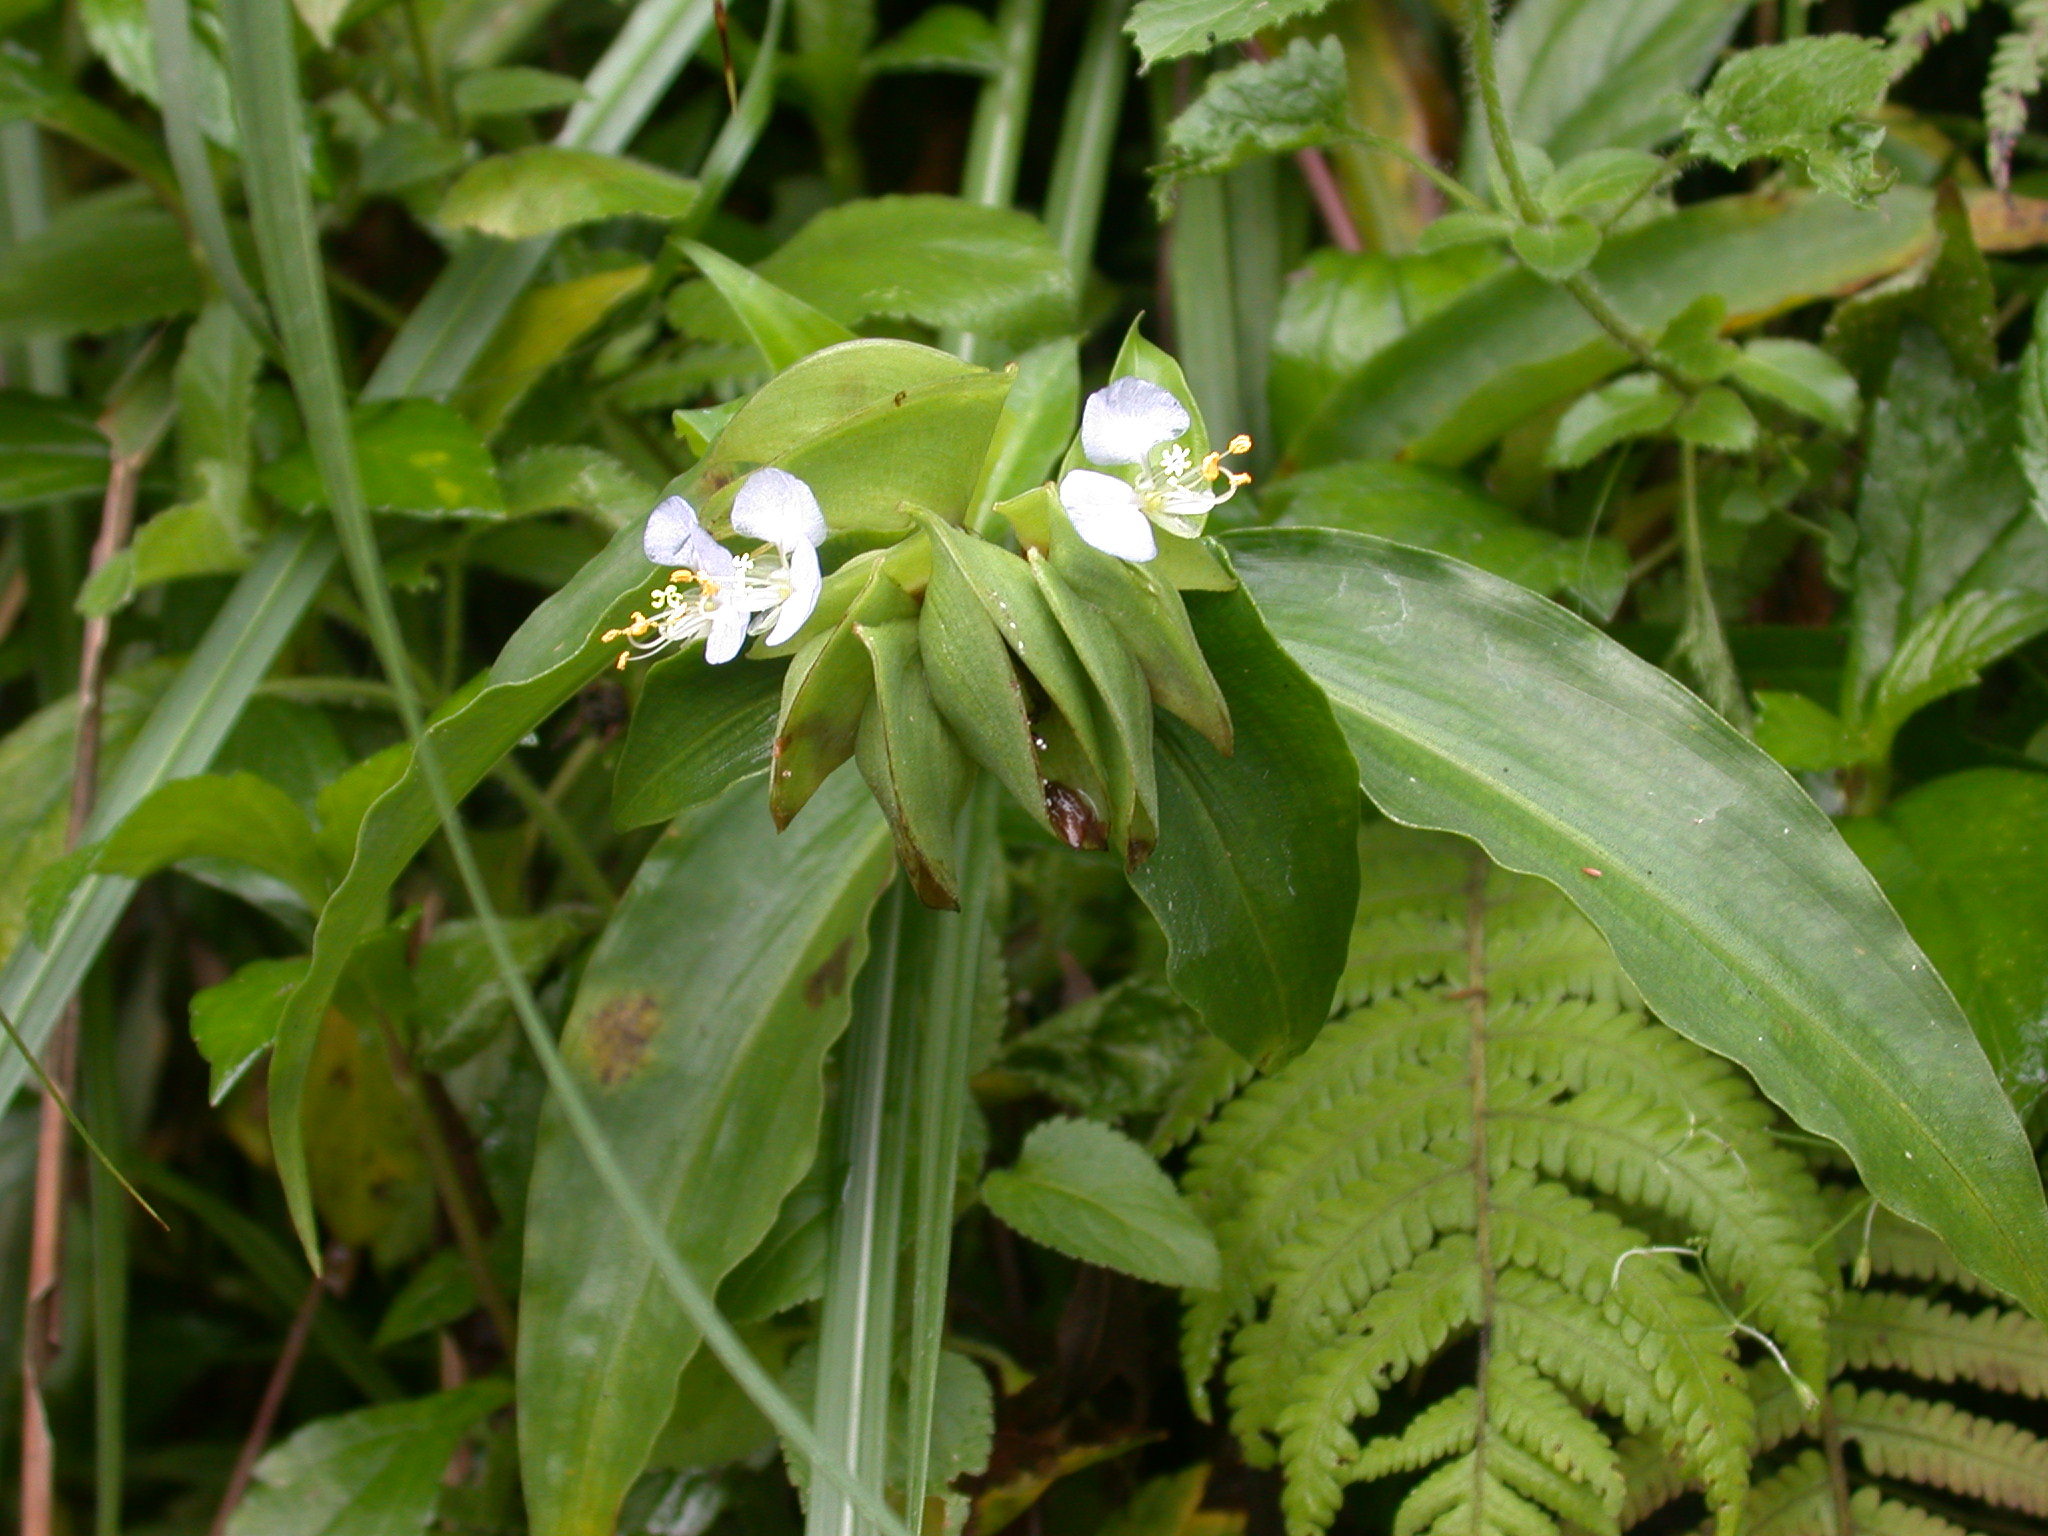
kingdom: Plantae
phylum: Tracheophyta
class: Liliopsida
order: Commelinales
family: Commelinaceae
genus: Commelina
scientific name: Commelina paludosa
